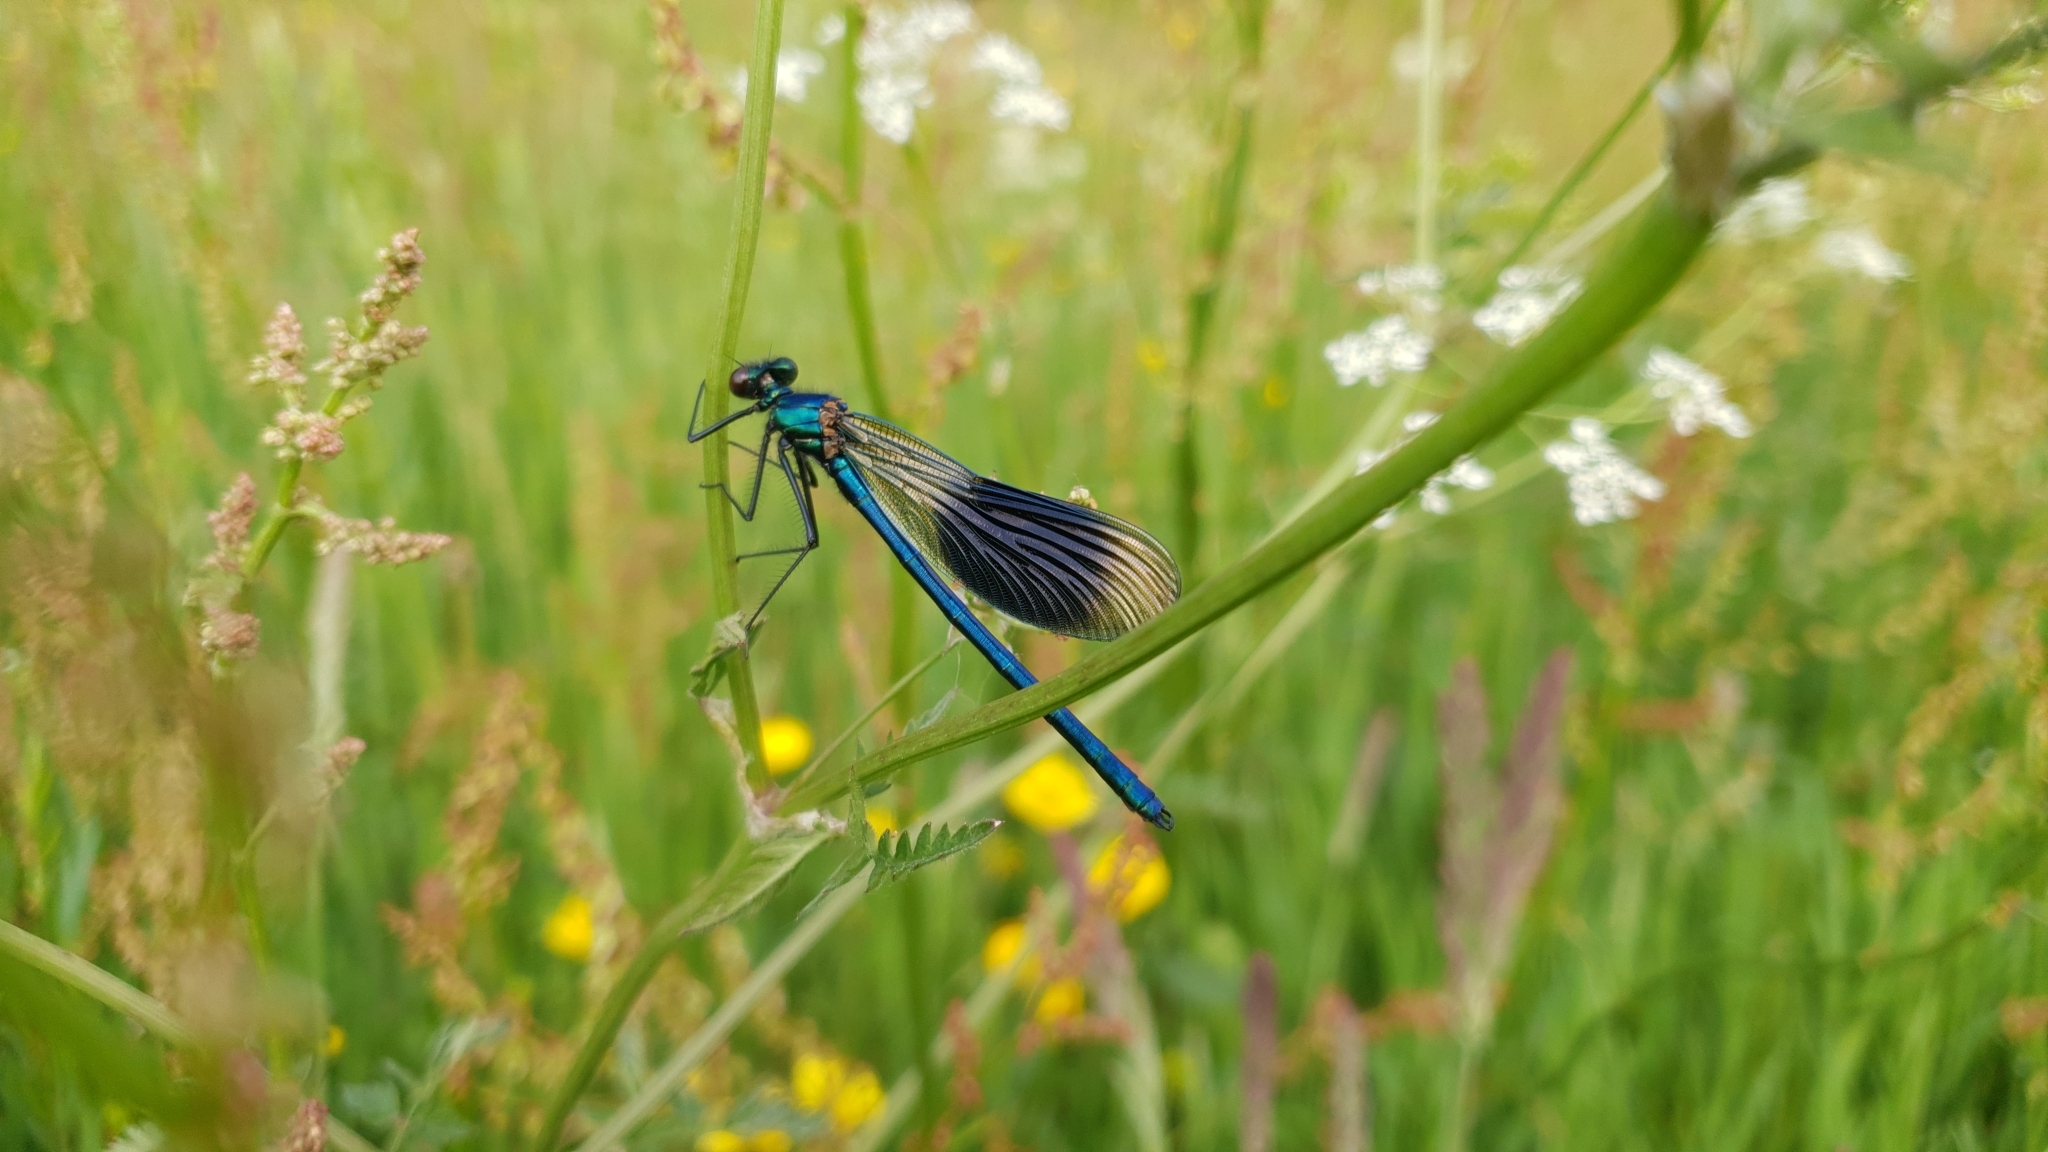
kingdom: Animalia
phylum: Arthropoda
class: Insecta
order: Odonata
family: Calopterygidae
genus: Calopteryx
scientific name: Calopteryx splendens
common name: Banded demoiselle
